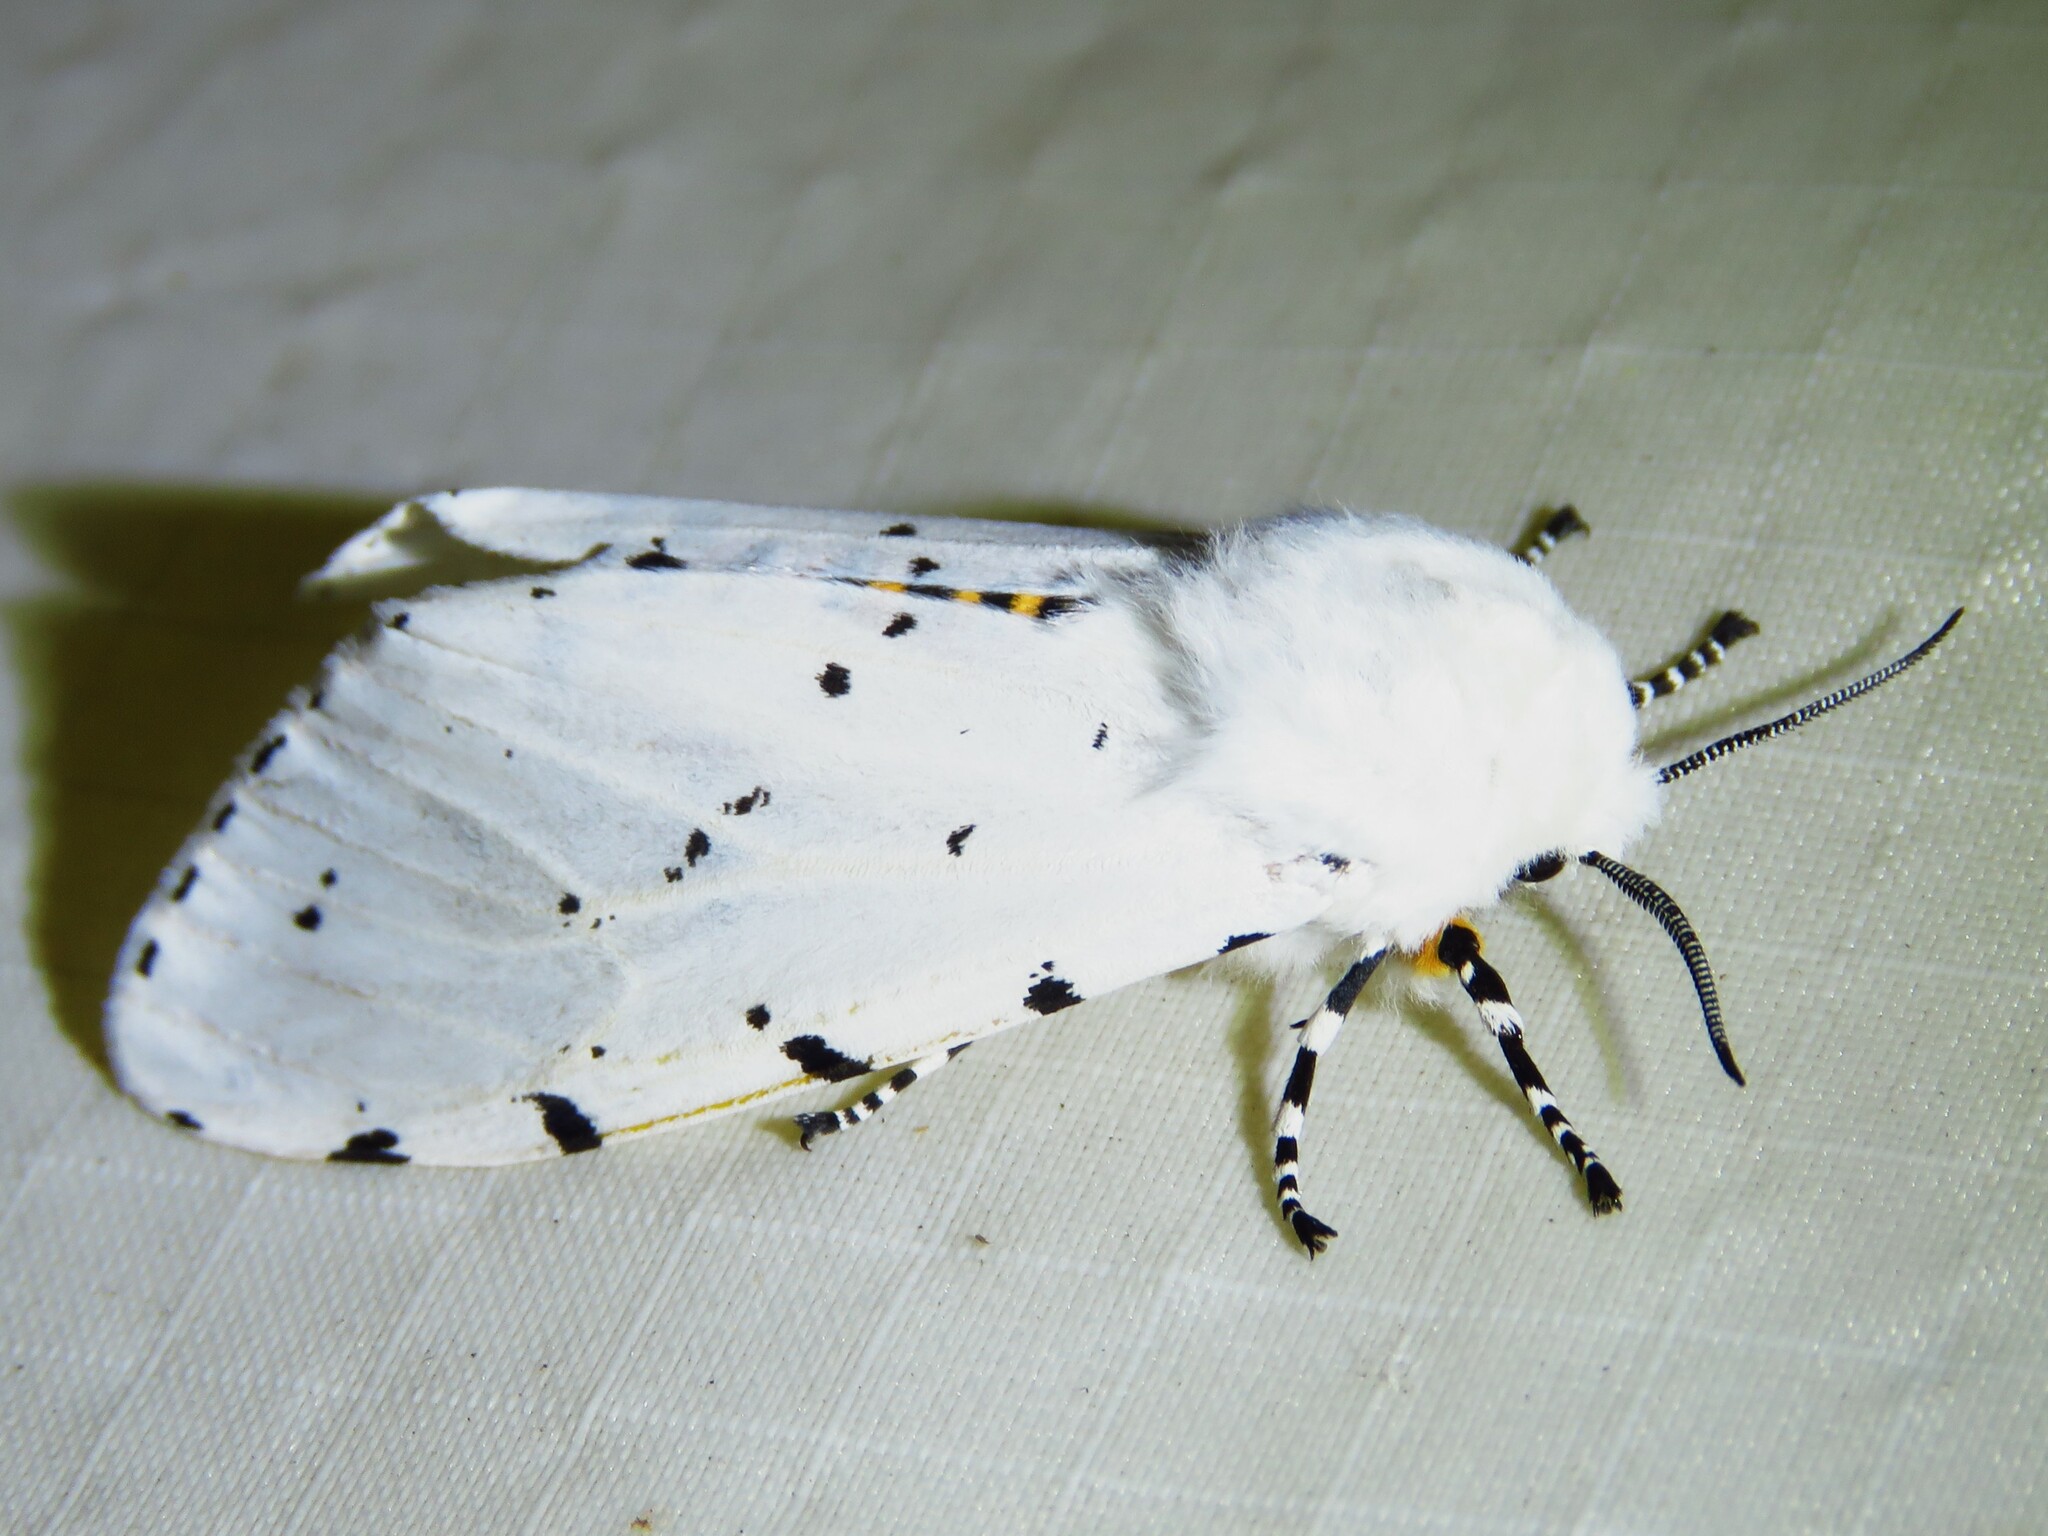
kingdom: Animalia
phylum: Arthropoda
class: Insecta
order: Lepidoptera
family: Erebidae
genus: Estigmene
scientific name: Estigmene acrea
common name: Salt marsh moth
